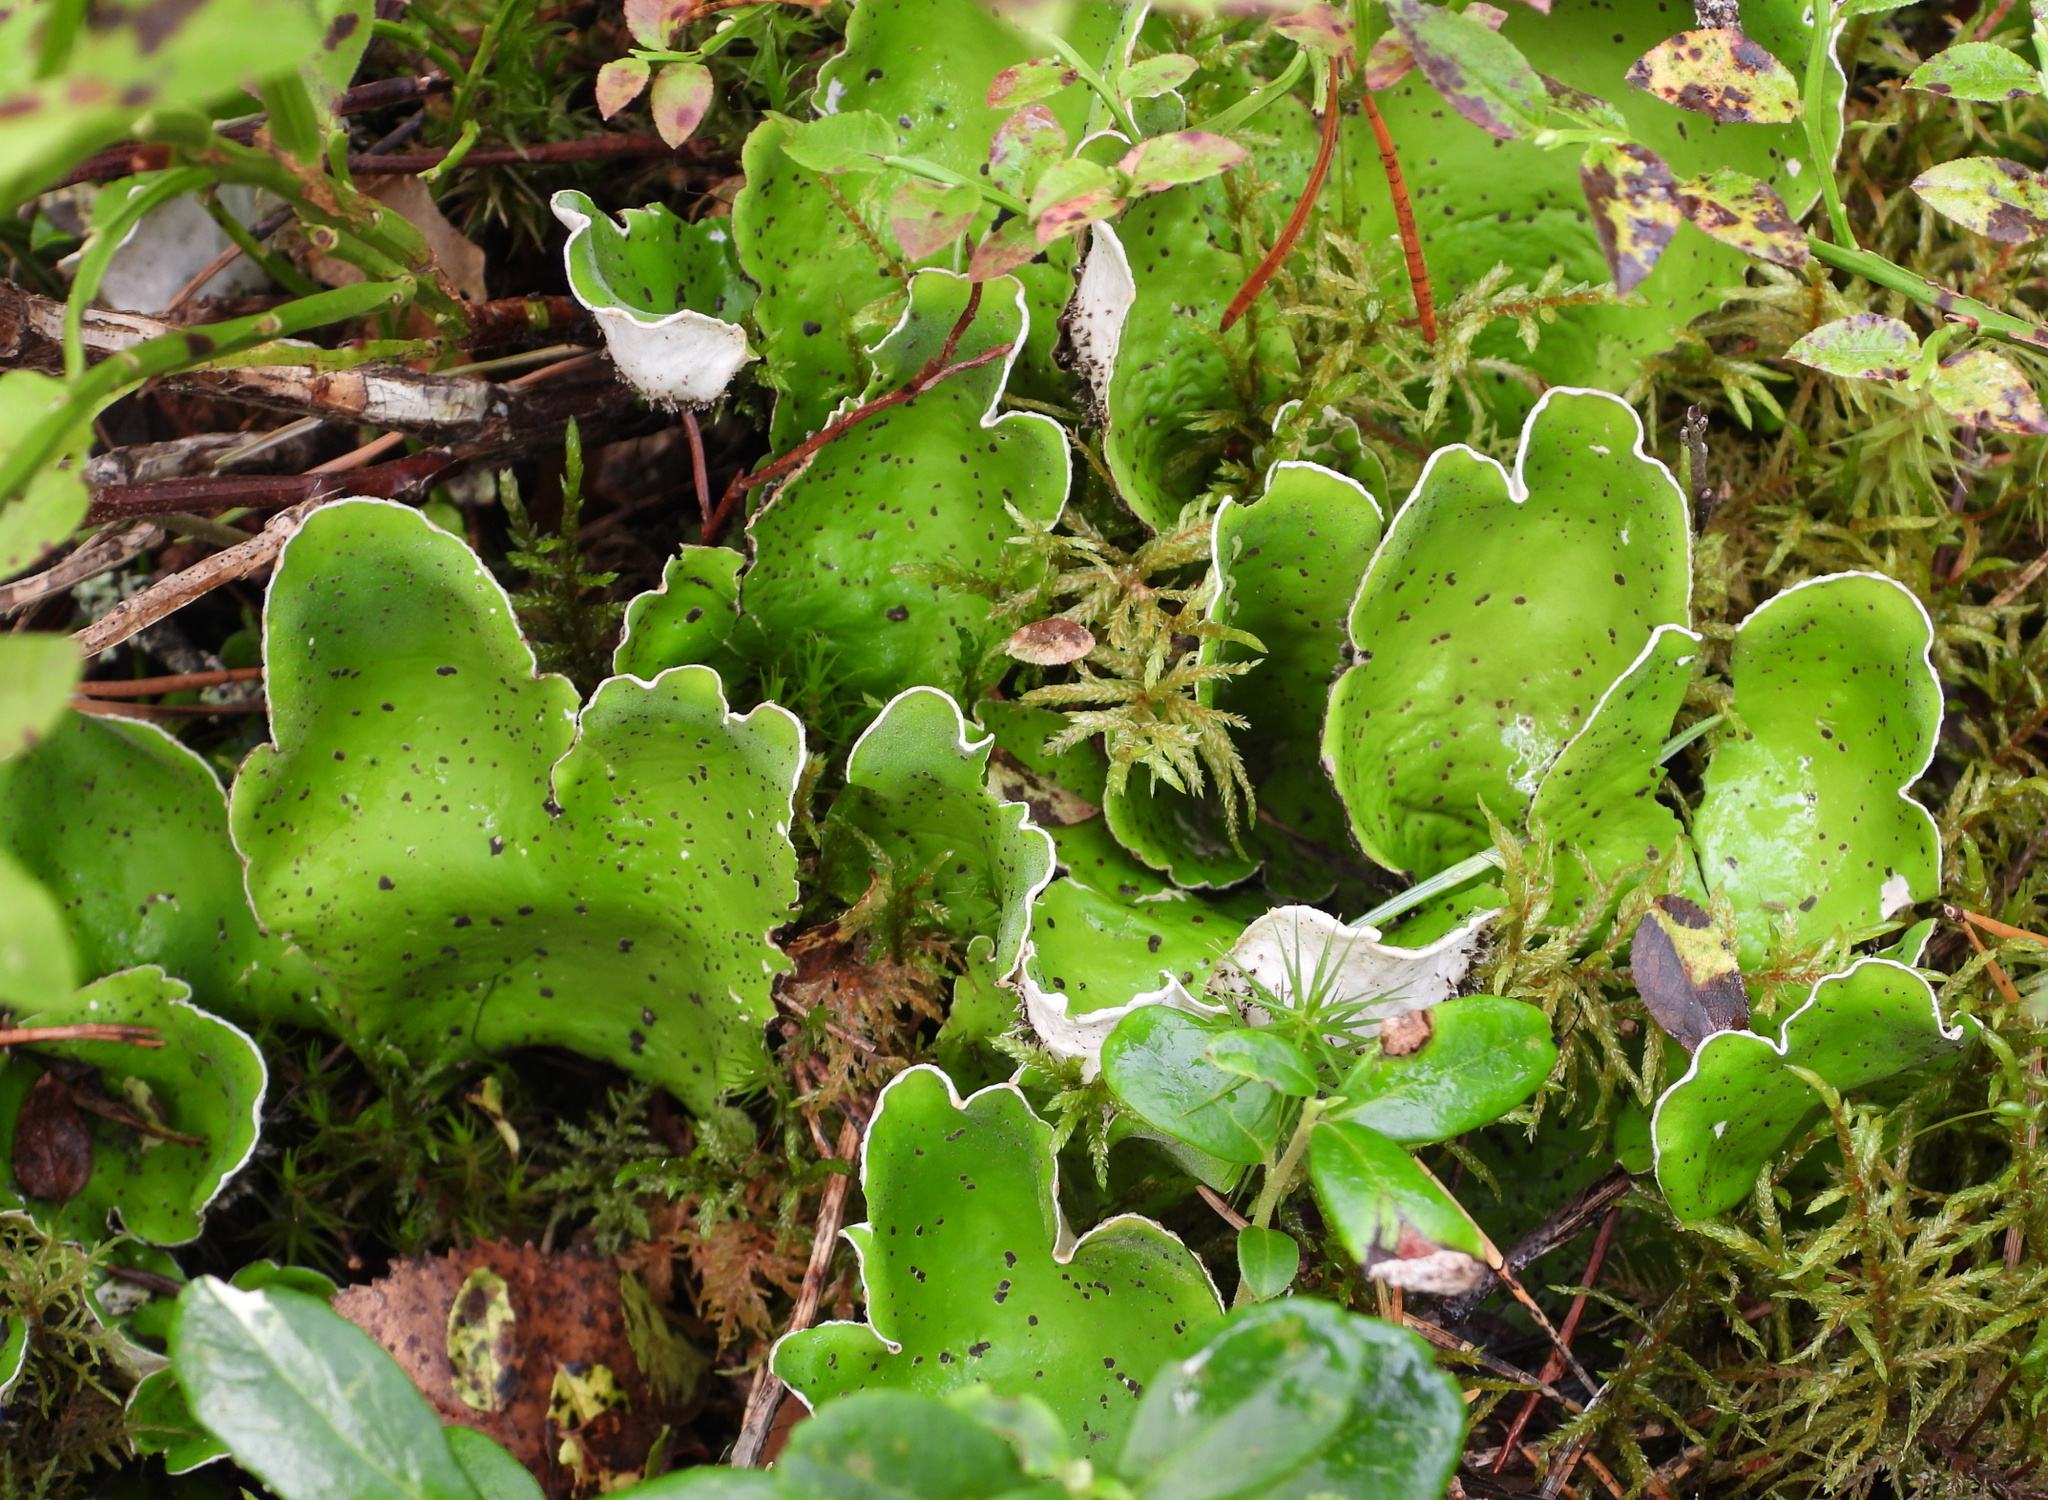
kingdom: Fungi
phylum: Ascomycota
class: Lecanoromycetes
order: Peltigerales
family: Peltigeraceae
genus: Peltigera
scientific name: Peltigera aphthosa
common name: Common freckle pelt lichen
